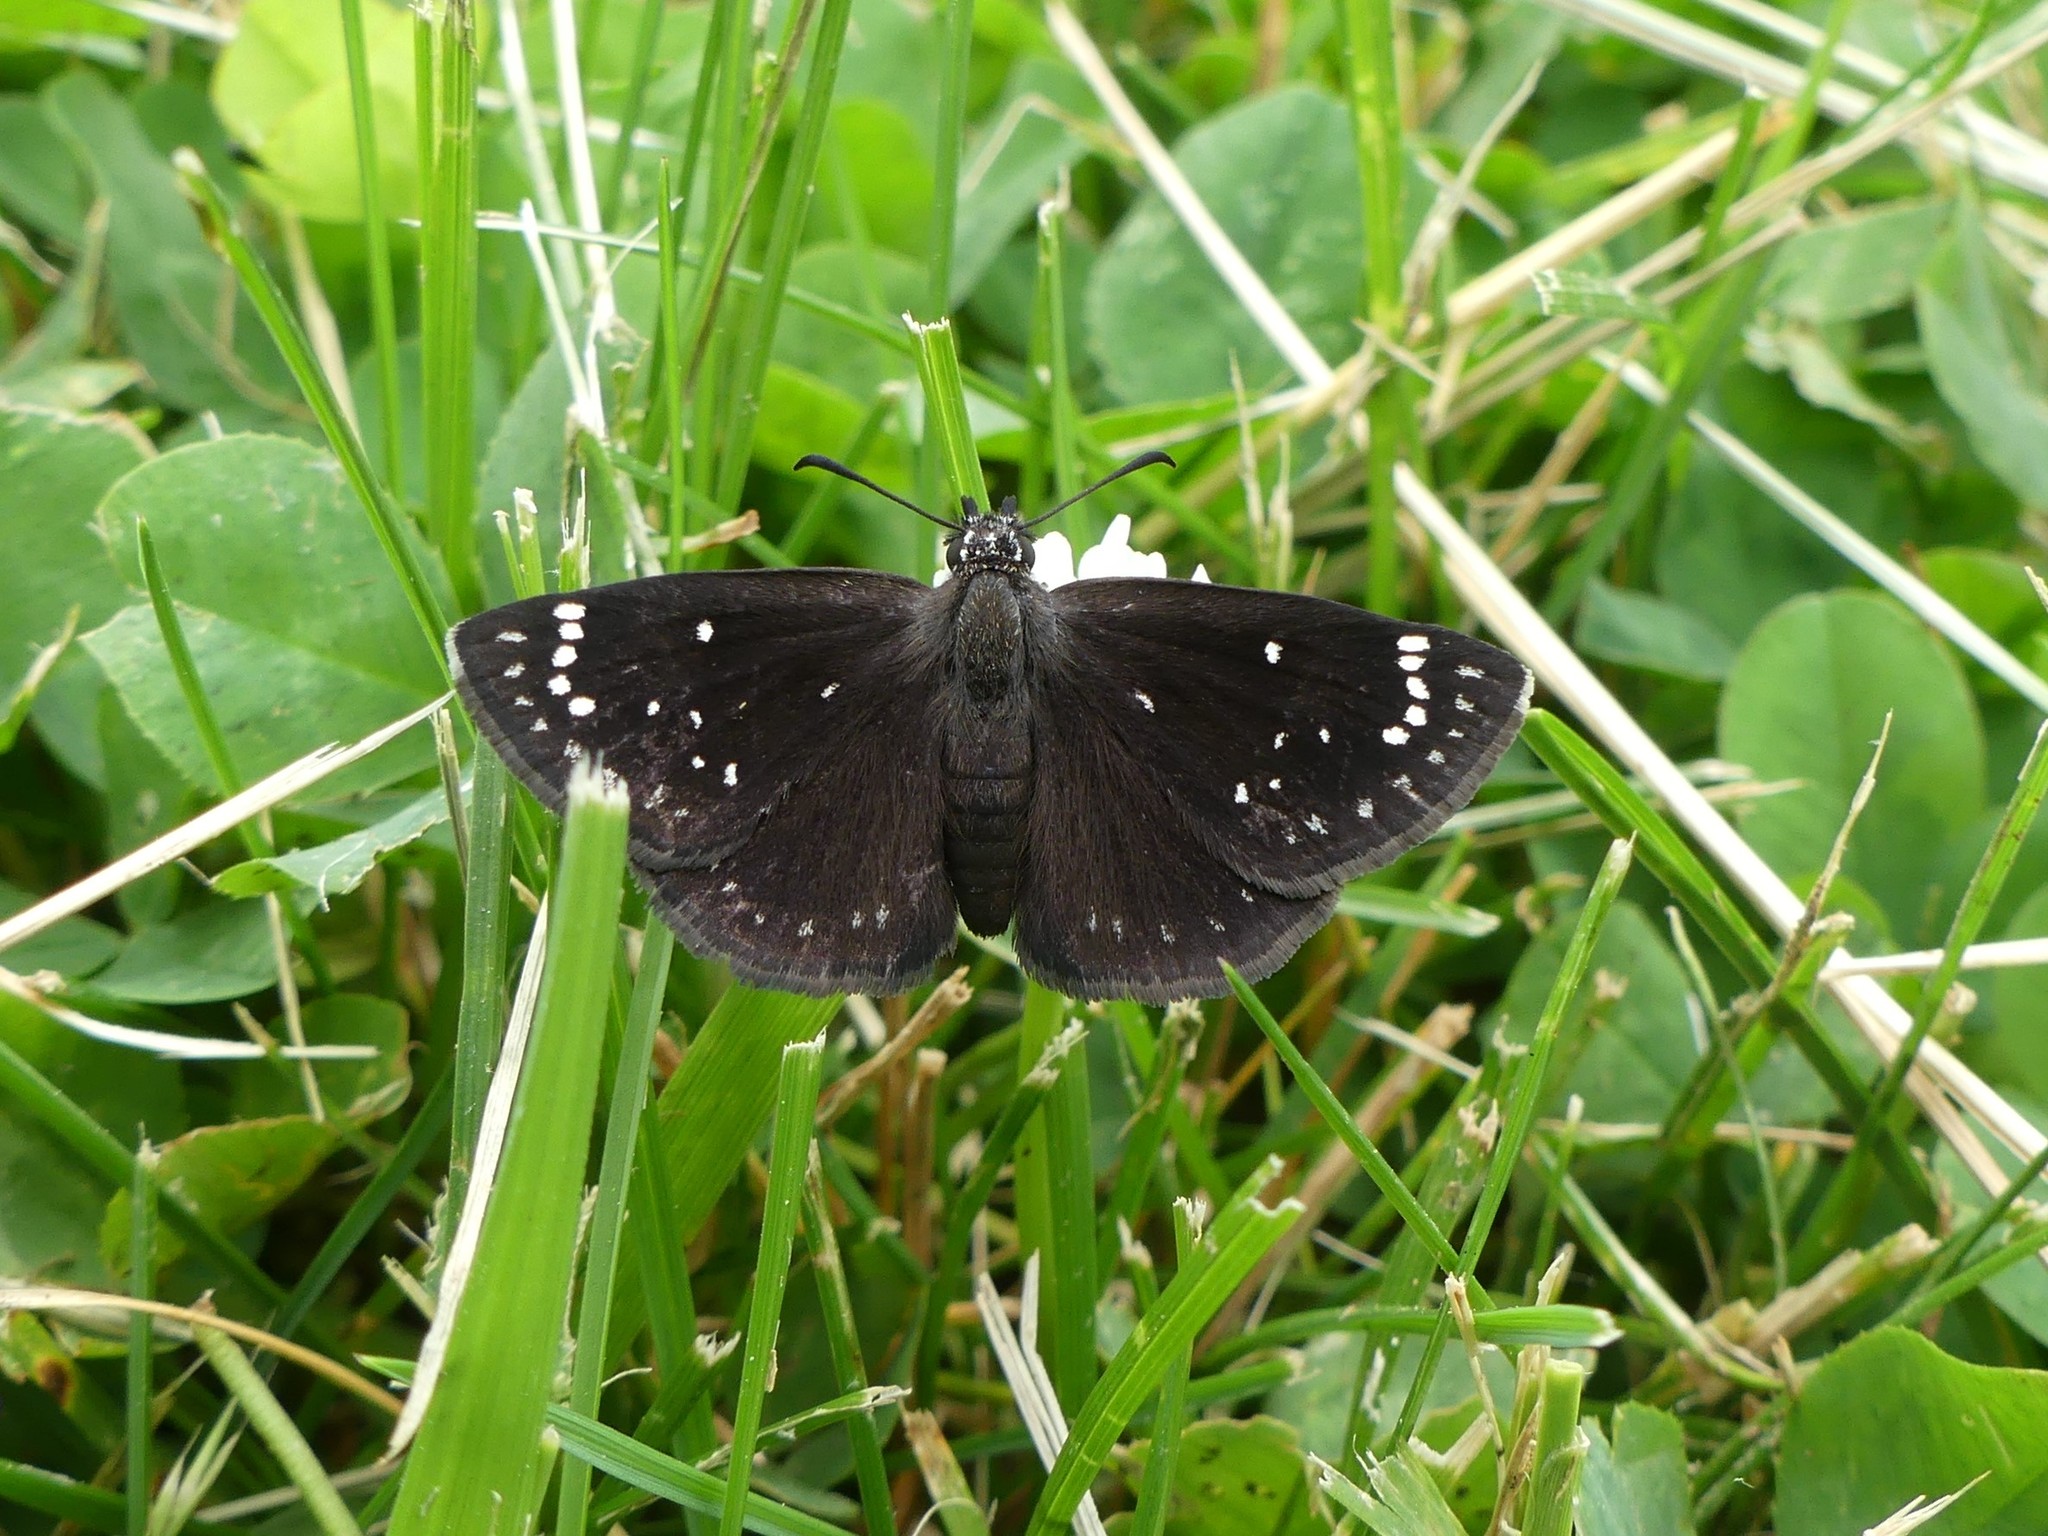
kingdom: Animalia
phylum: Arthropoda
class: Insecta
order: Lepidoptera
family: Hesperiidae
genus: Pholisora
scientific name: Pholisora catullus
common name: Common sootywing
